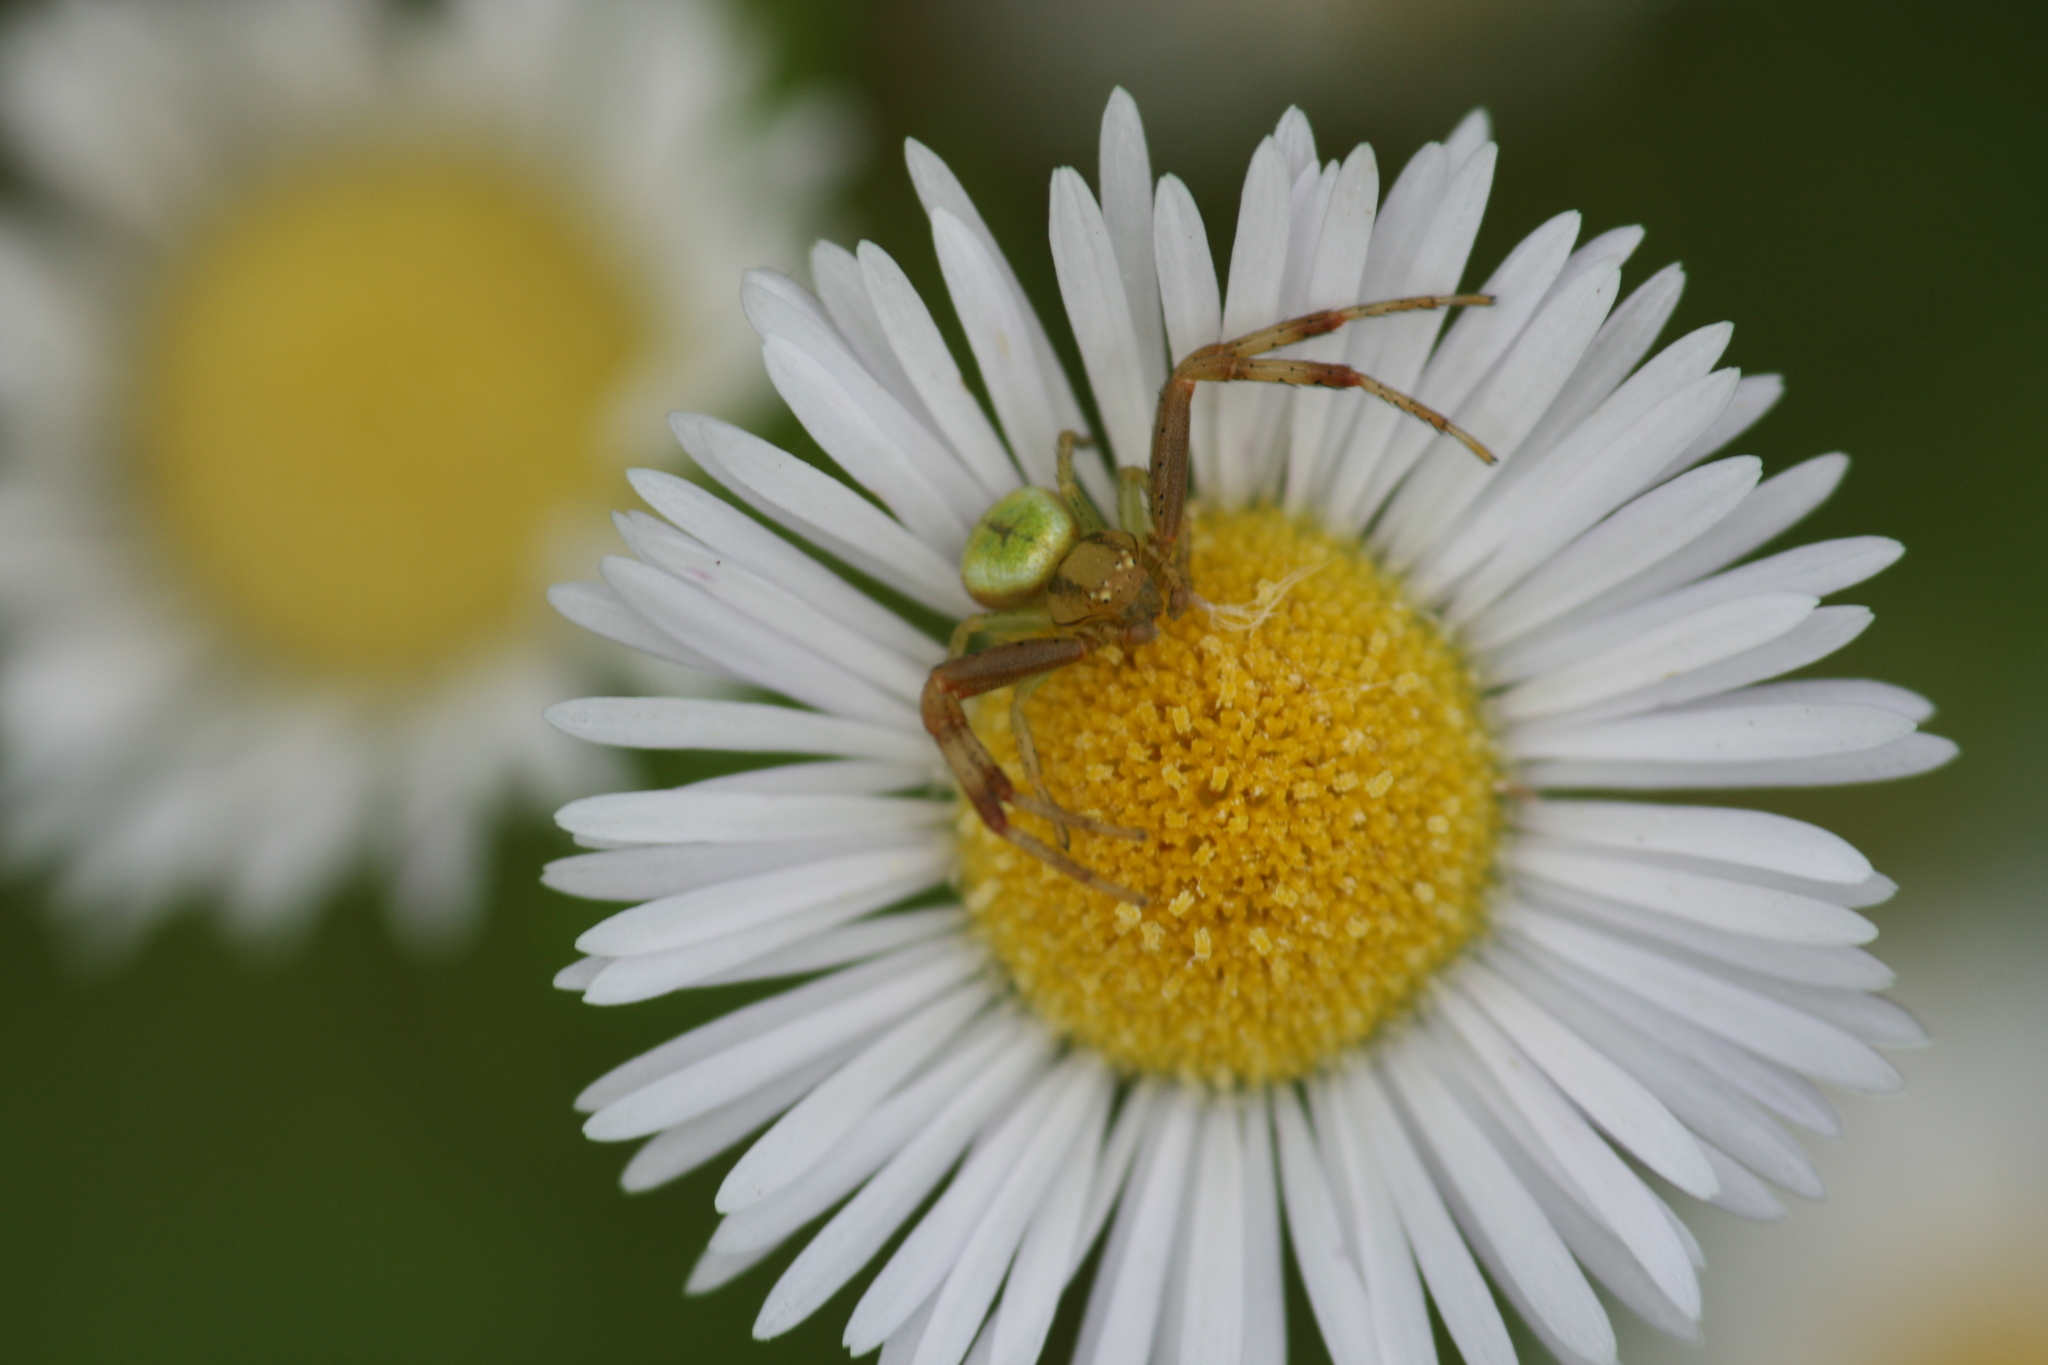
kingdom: Animalia
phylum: Arthropoda
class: Arachnida
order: Araneae
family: Thomisidae
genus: Ebrechtella
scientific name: Ebrechtella tricuspidata
